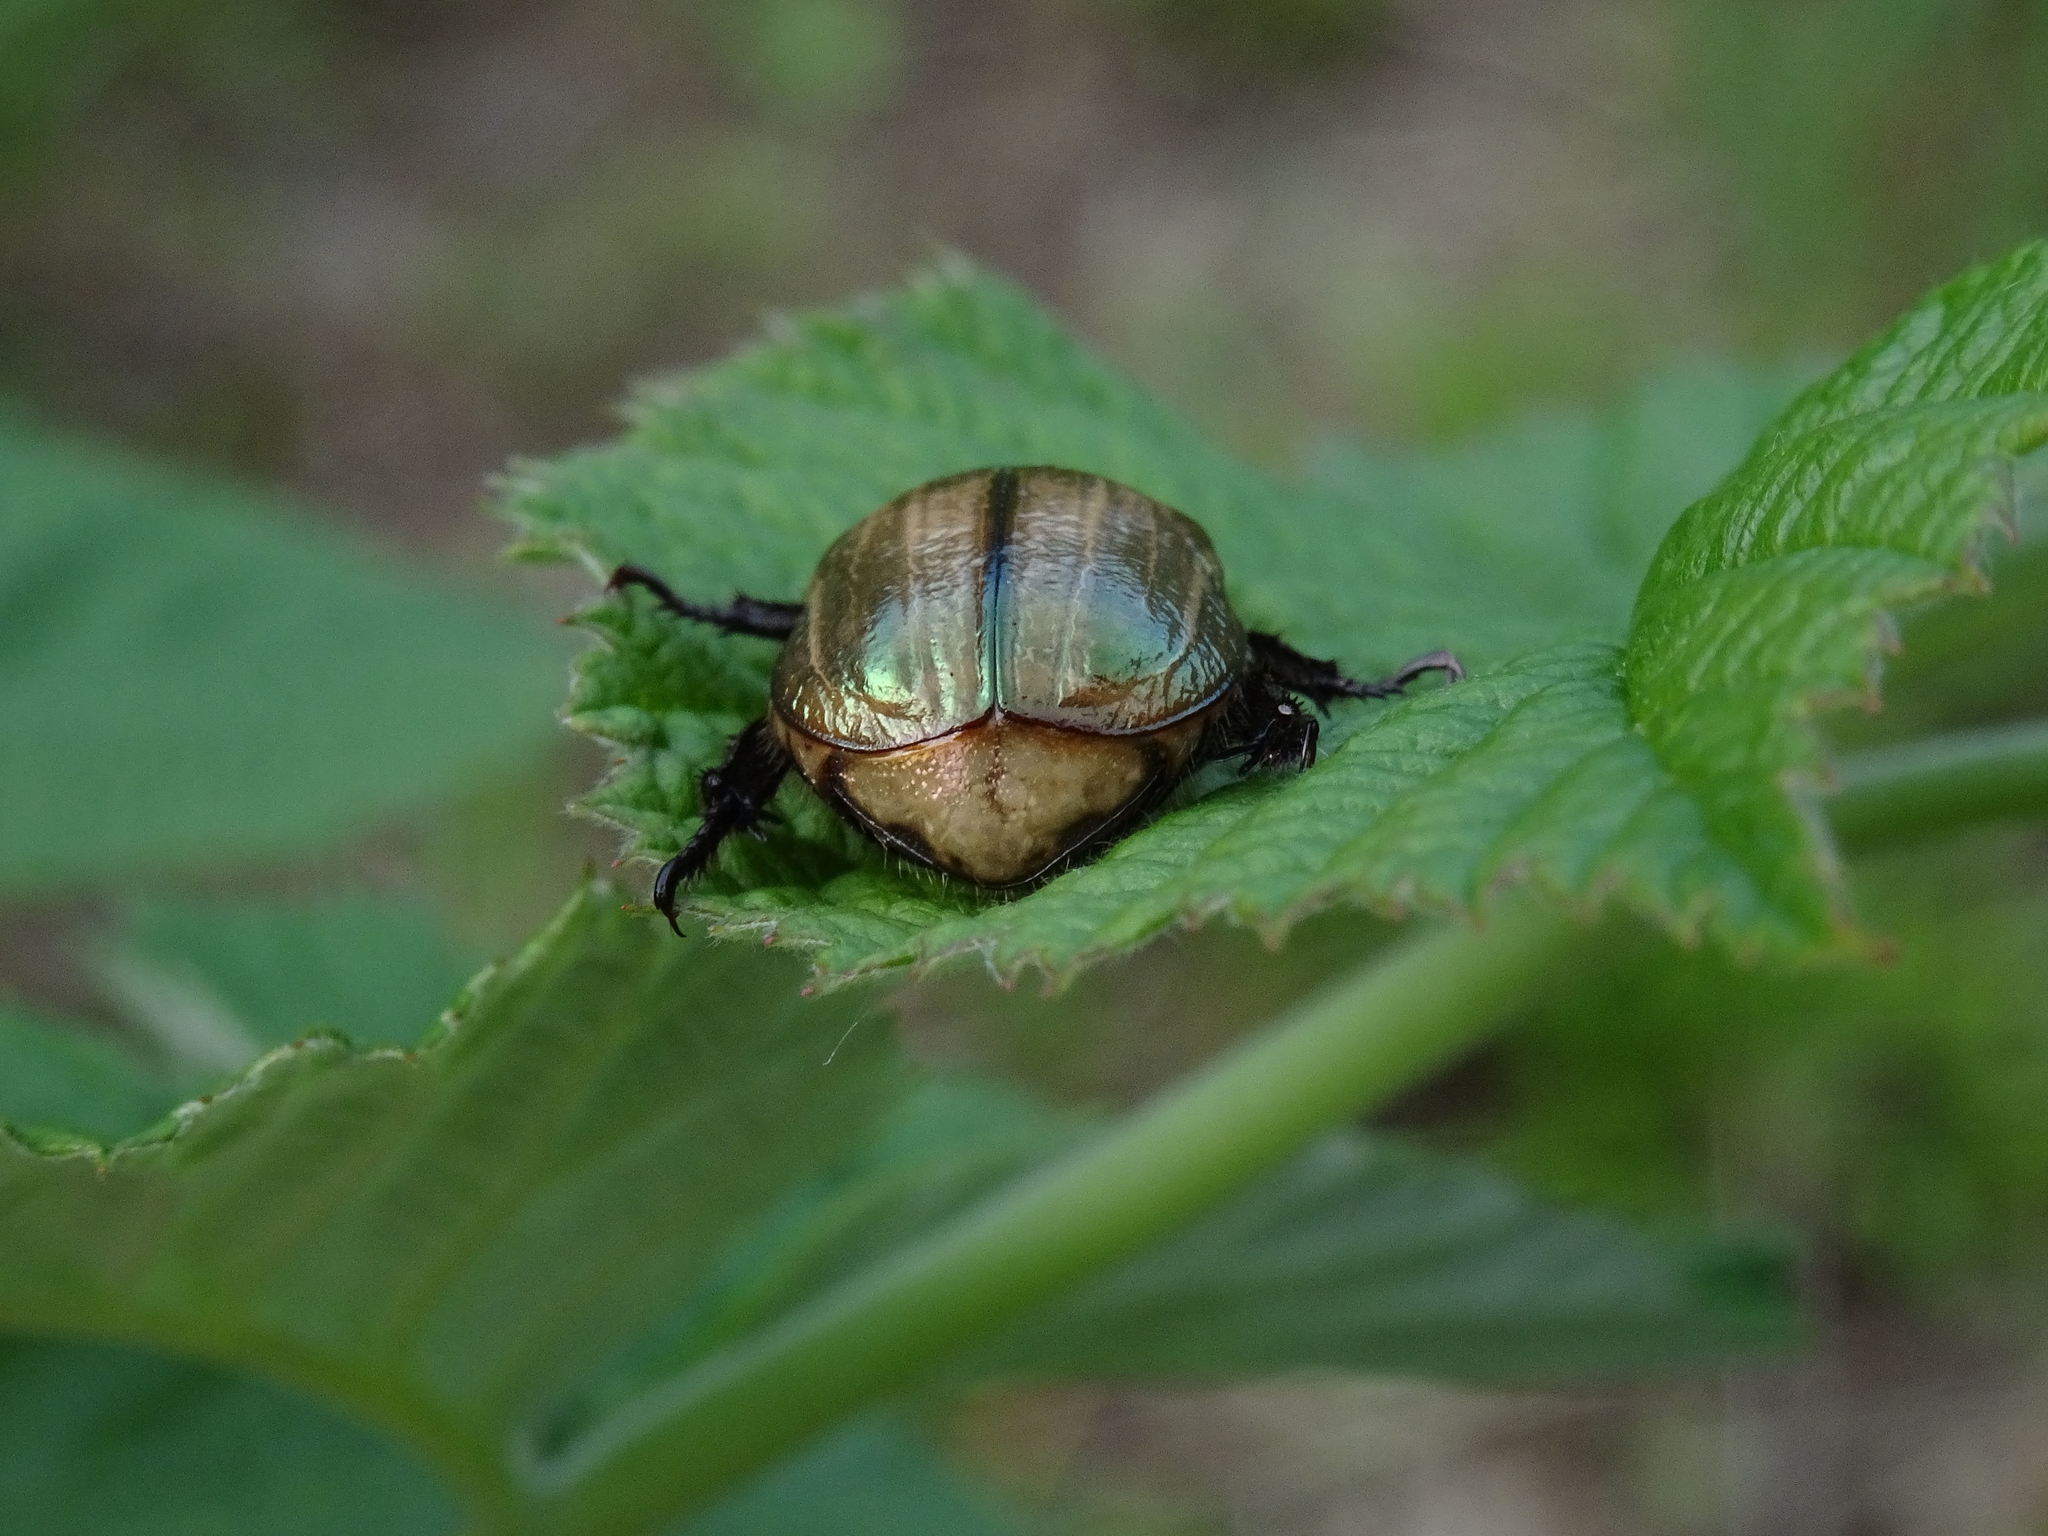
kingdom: Animalia
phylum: Arthropoda
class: Insecta
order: Coleoptera
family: Scarabaeidae
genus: Mimela
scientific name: Mimela junii
